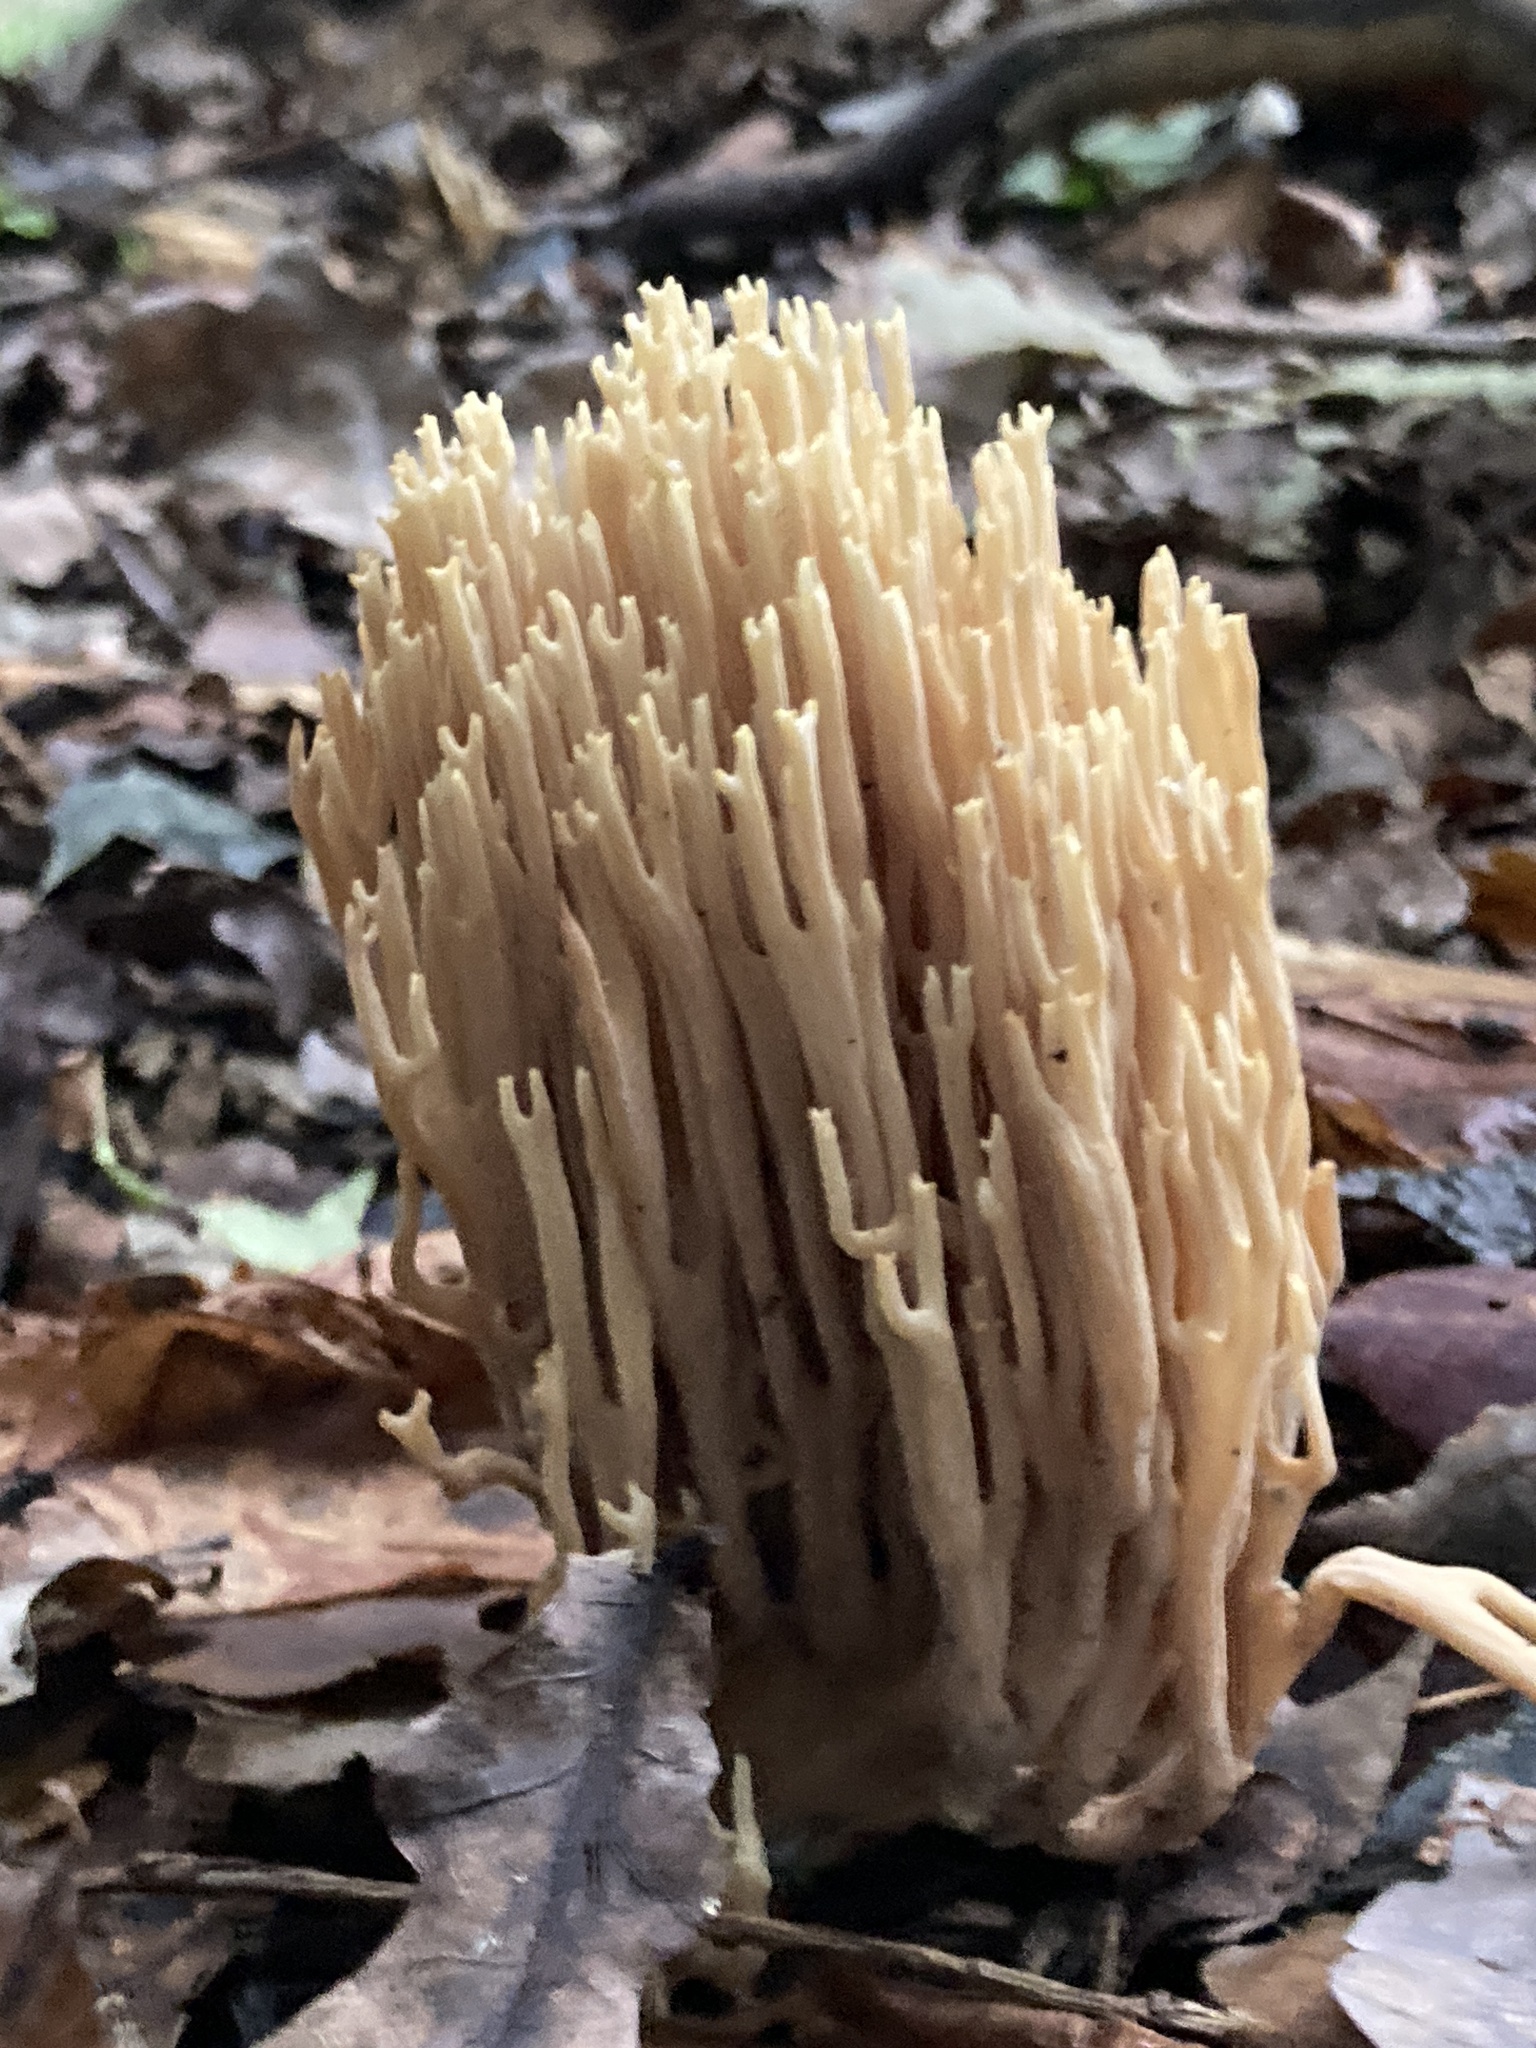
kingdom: Fungi
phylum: Basidiomycota
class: Agaricomycetes
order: Gomphales
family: Gomphaceae
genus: Ramaria
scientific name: Ramaria stricta
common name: Upright coral
